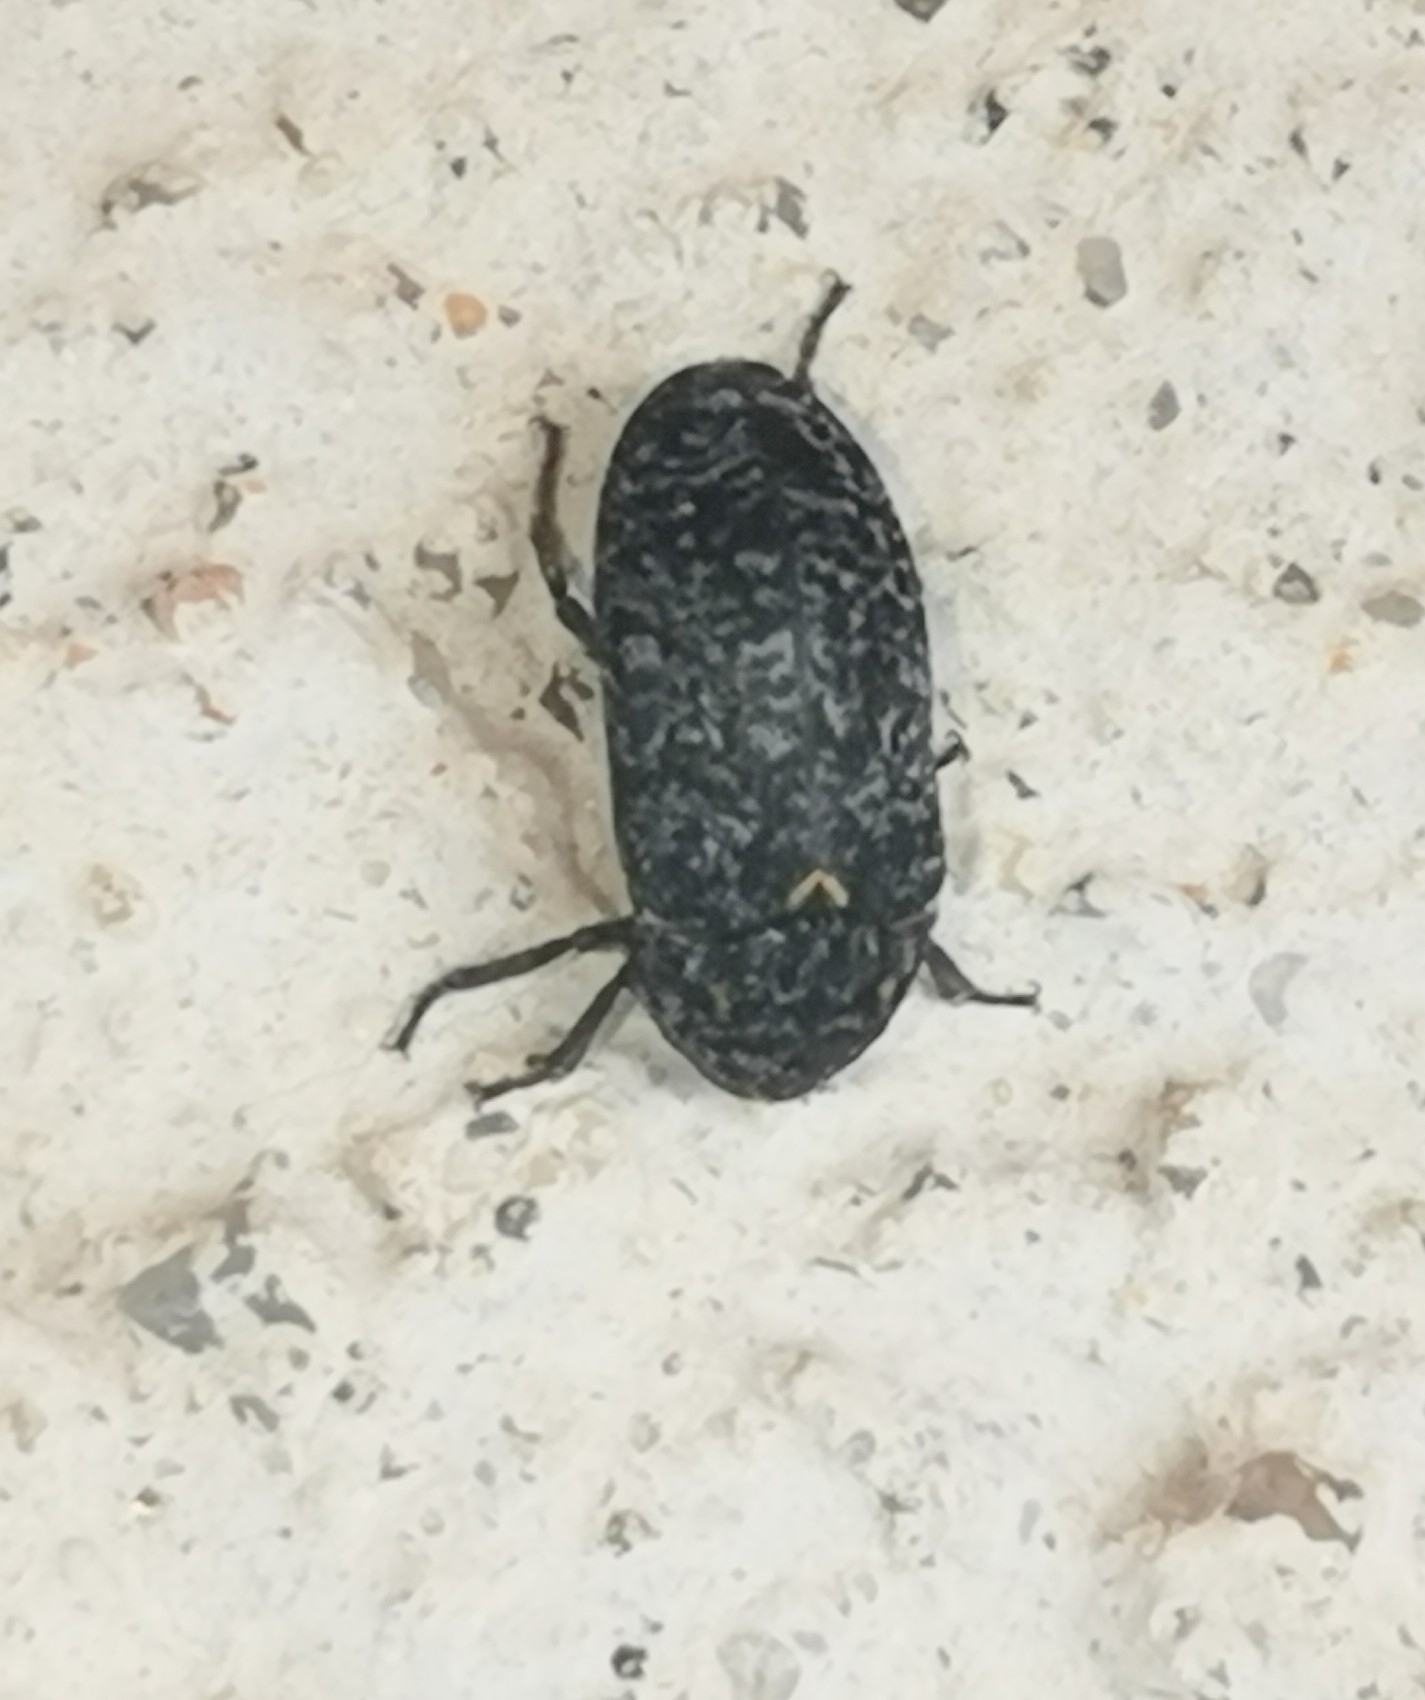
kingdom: Animalia
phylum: Arthropoda
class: Insecta
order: Coleoptera
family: Dermestidae
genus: Dermestes
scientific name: Dermestes murinus
